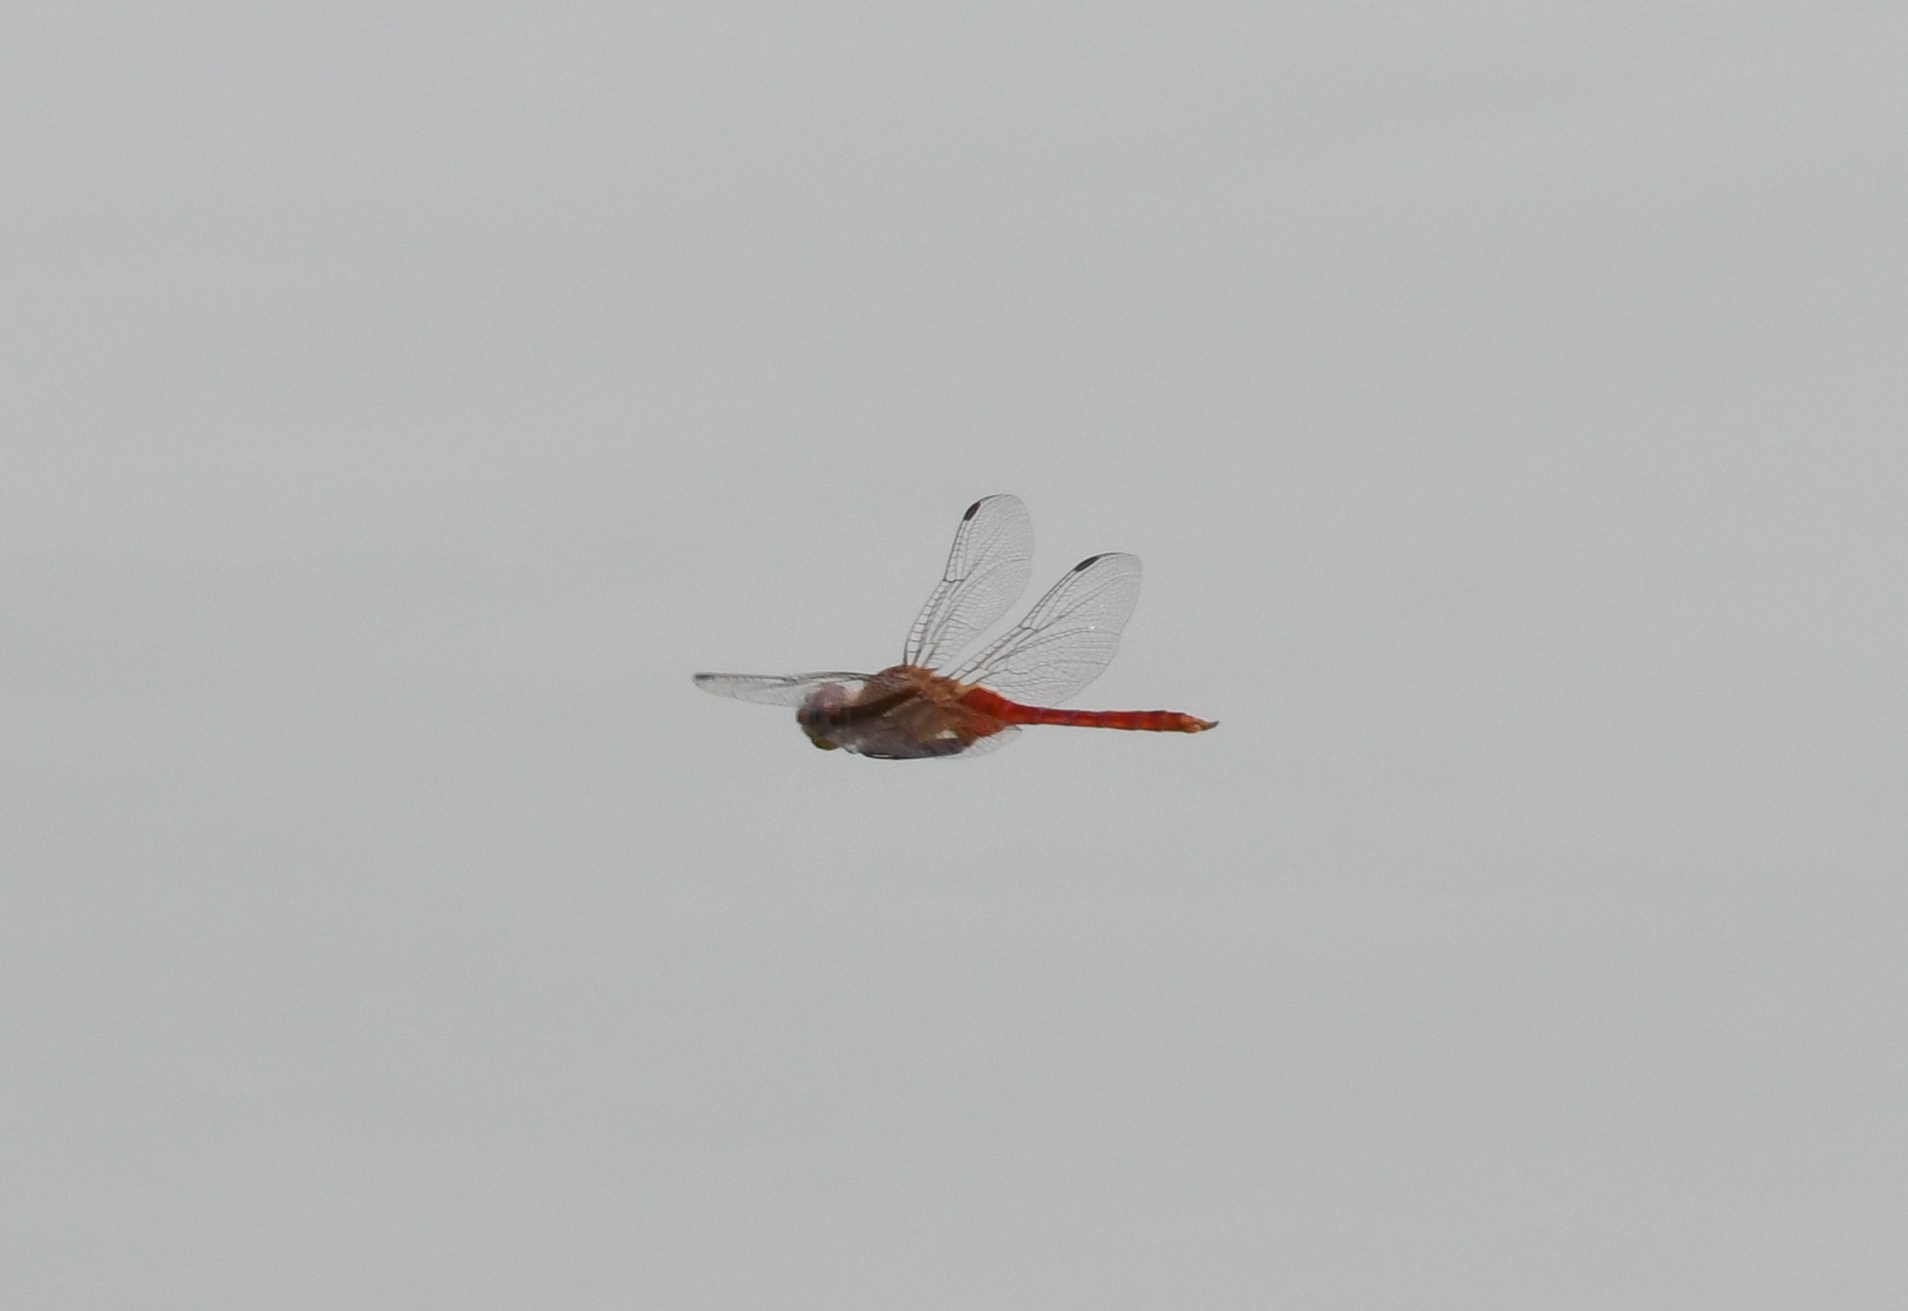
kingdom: Animalia
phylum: Arthropoda
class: Insecta
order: Odonata
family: Libellulidae
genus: Brachymesia
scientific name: Brachymesia furcata
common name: Red-taled pennant
